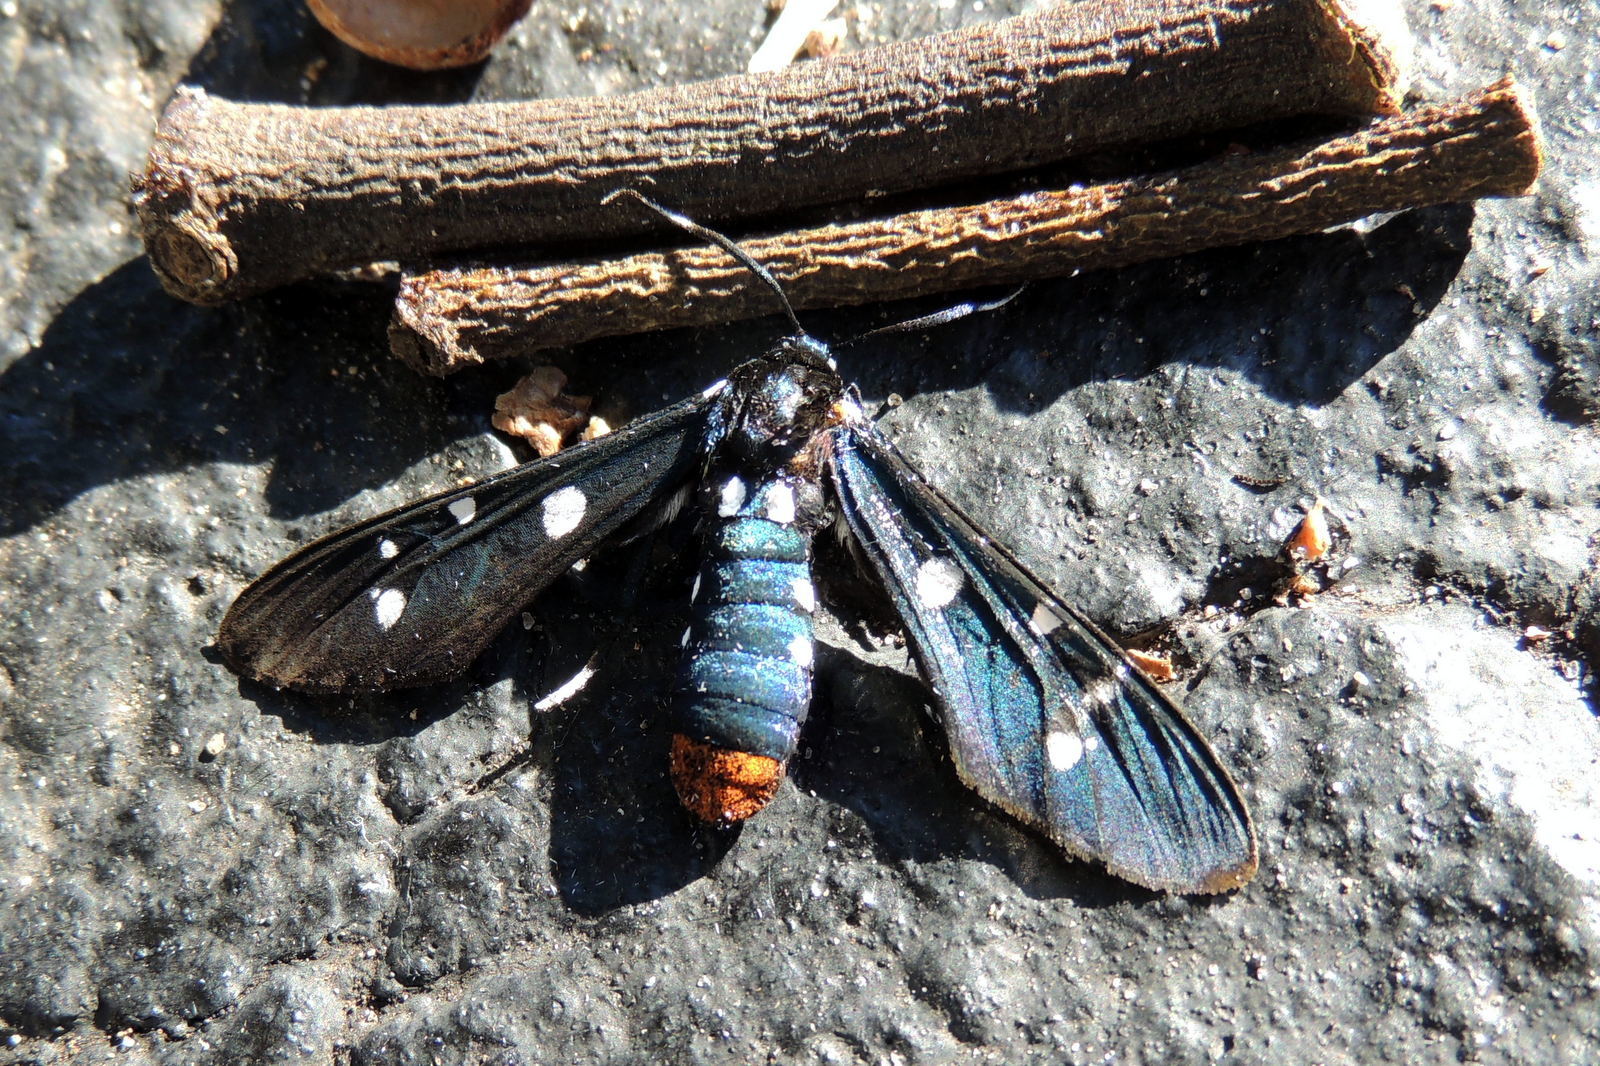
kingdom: Animalia
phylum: Arthropoda
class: Insecta
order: Lepidoptera
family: Erebidae
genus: Syntomeida
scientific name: Syntomeida epilais
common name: Polka-dot wasp moth
